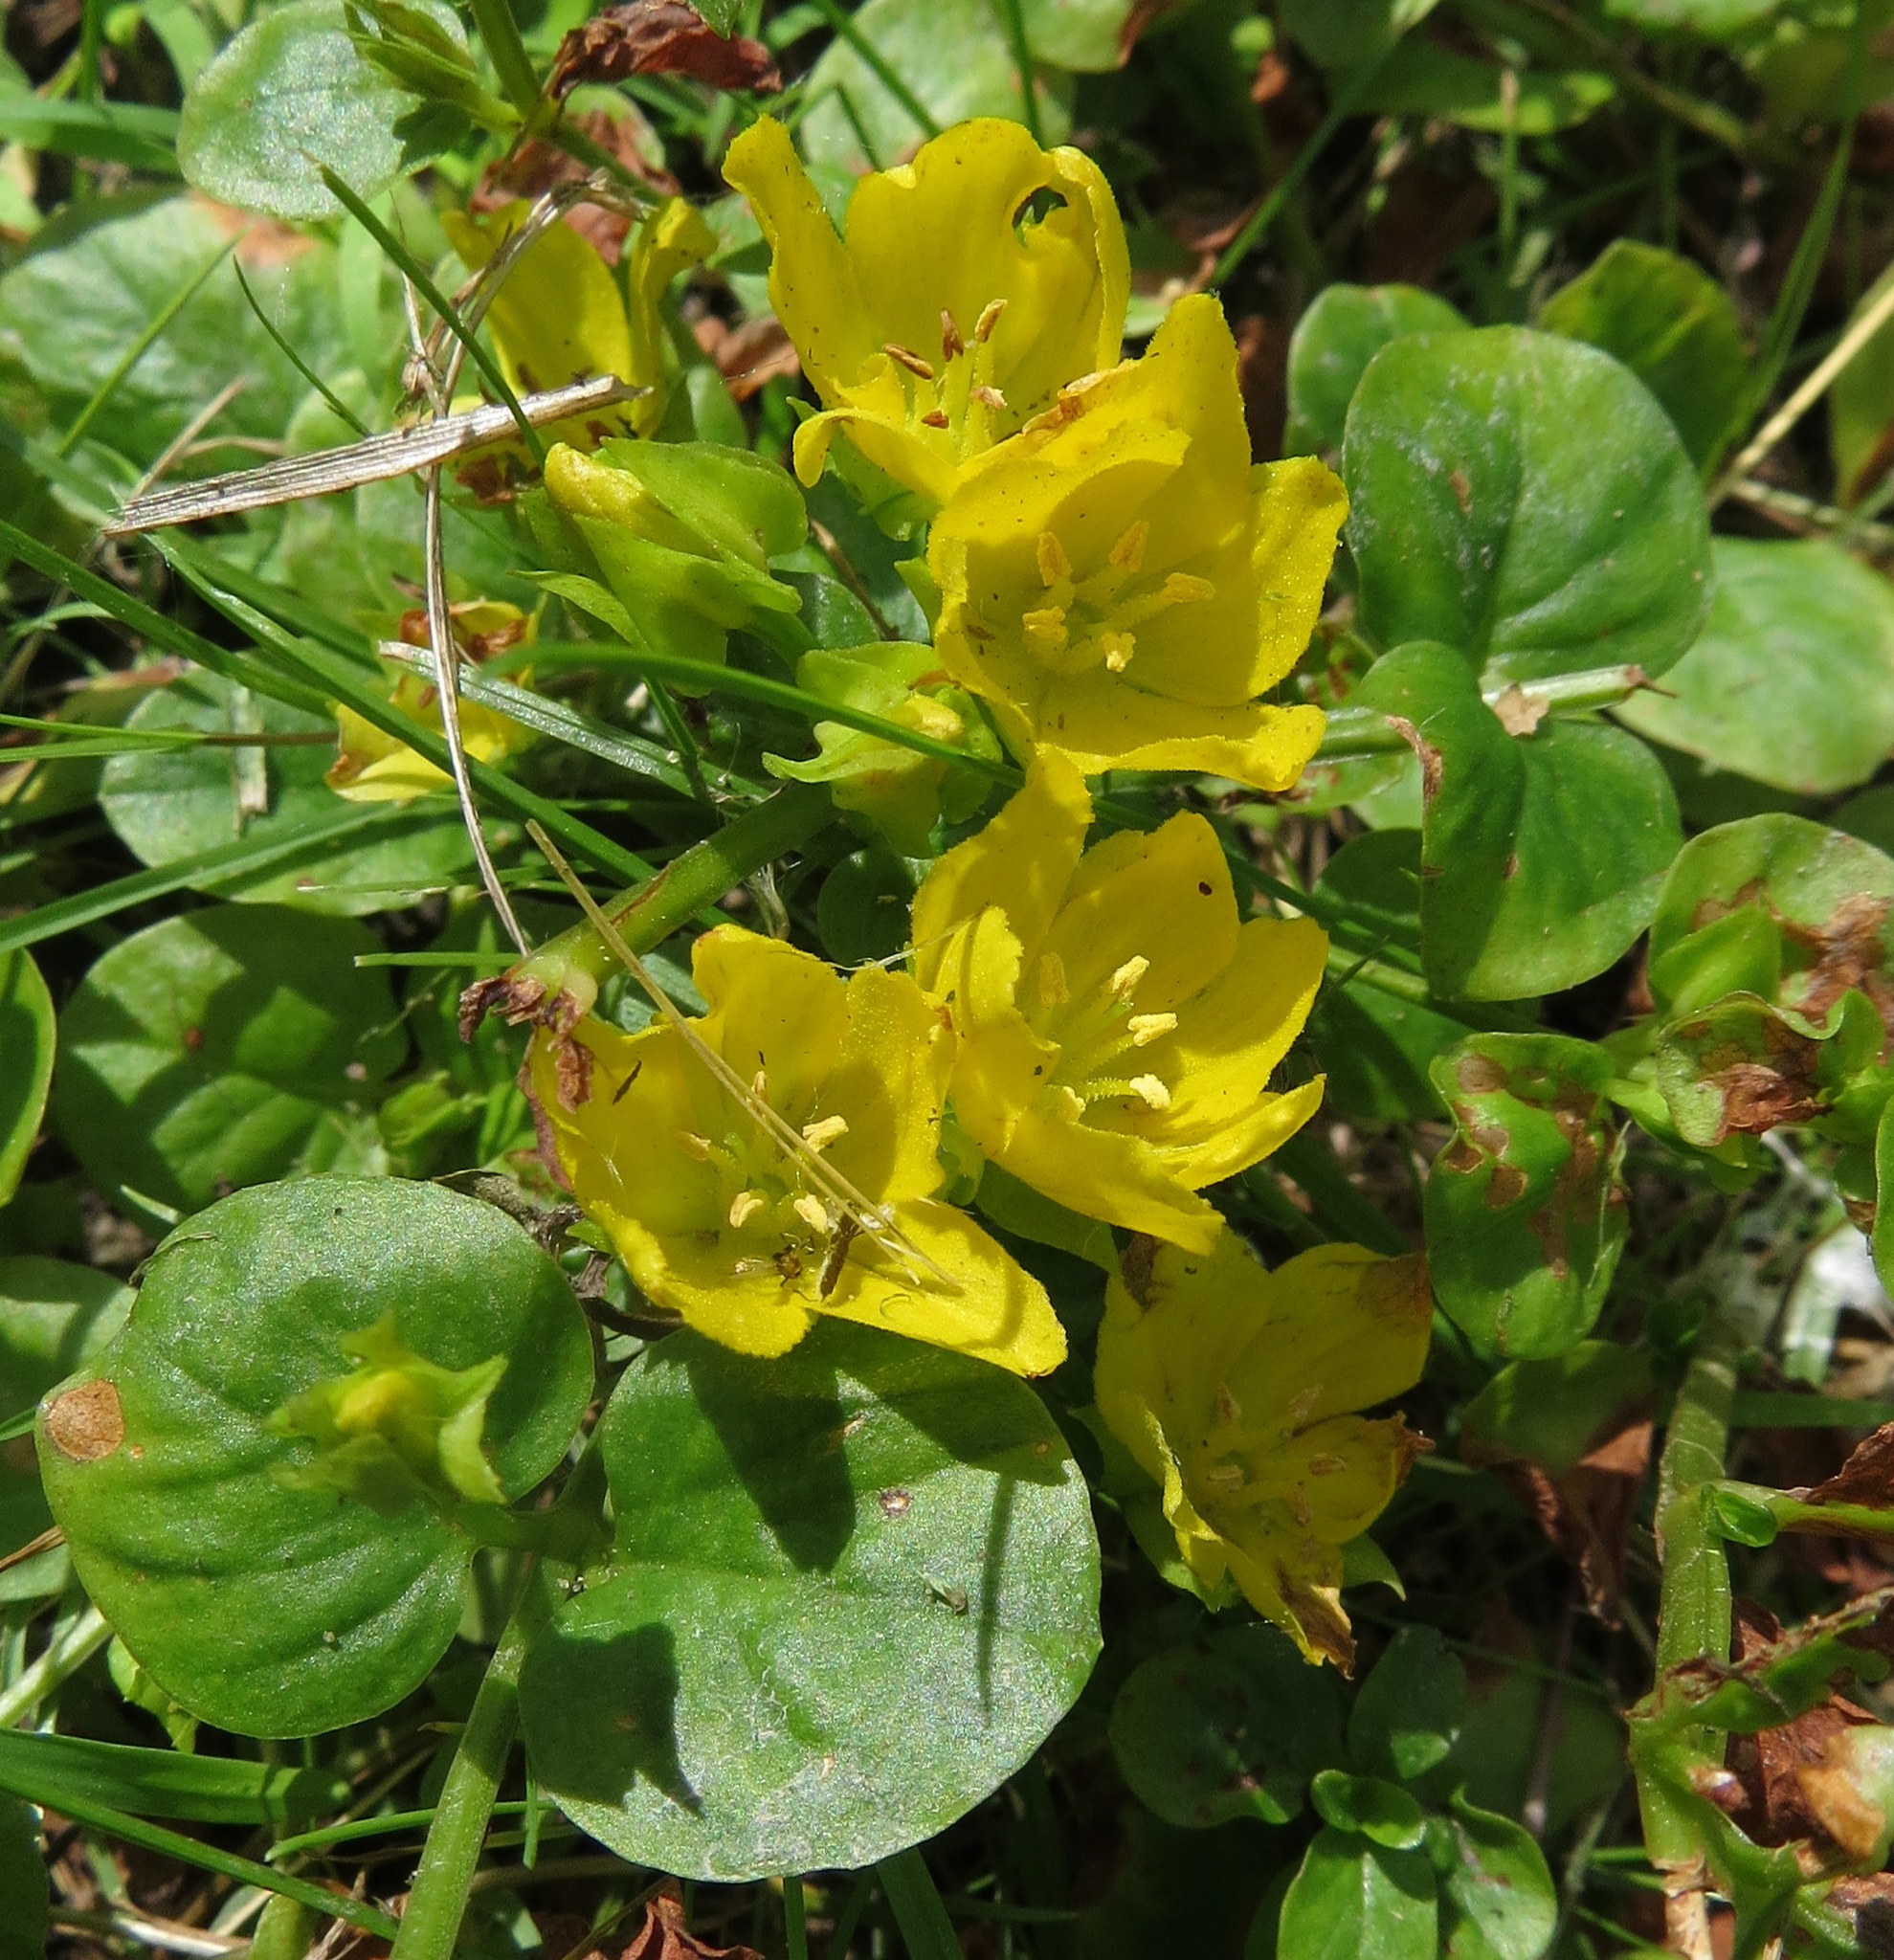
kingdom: Plantae
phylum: Tracheophyta
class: Magnoliopsida
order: Ericales
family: Primulaceae
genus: Lysimachia
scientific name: Lysimachia nummularia
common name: Moneywort
